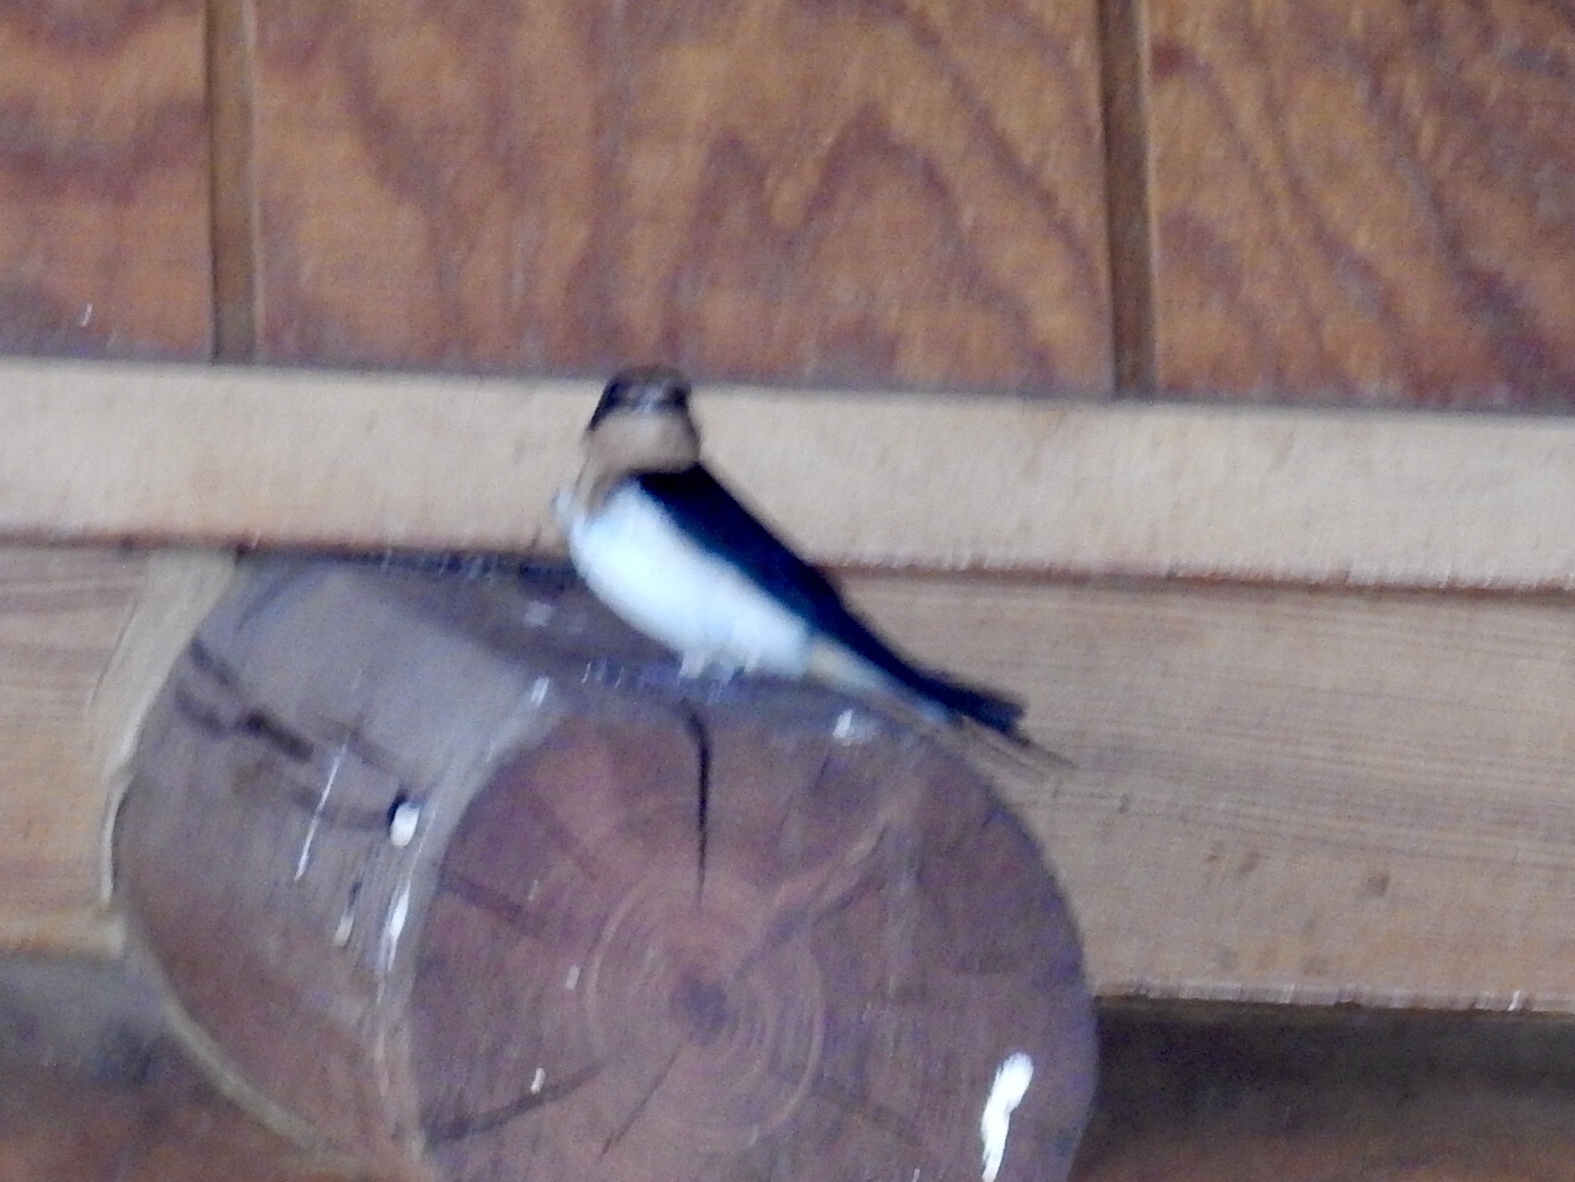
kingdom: Animalia
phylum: Chordata
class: Aves
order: Passeriformes
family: Hirundinidae
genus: Hirundo
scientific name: Hirundo rustica
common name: Barn swallow
